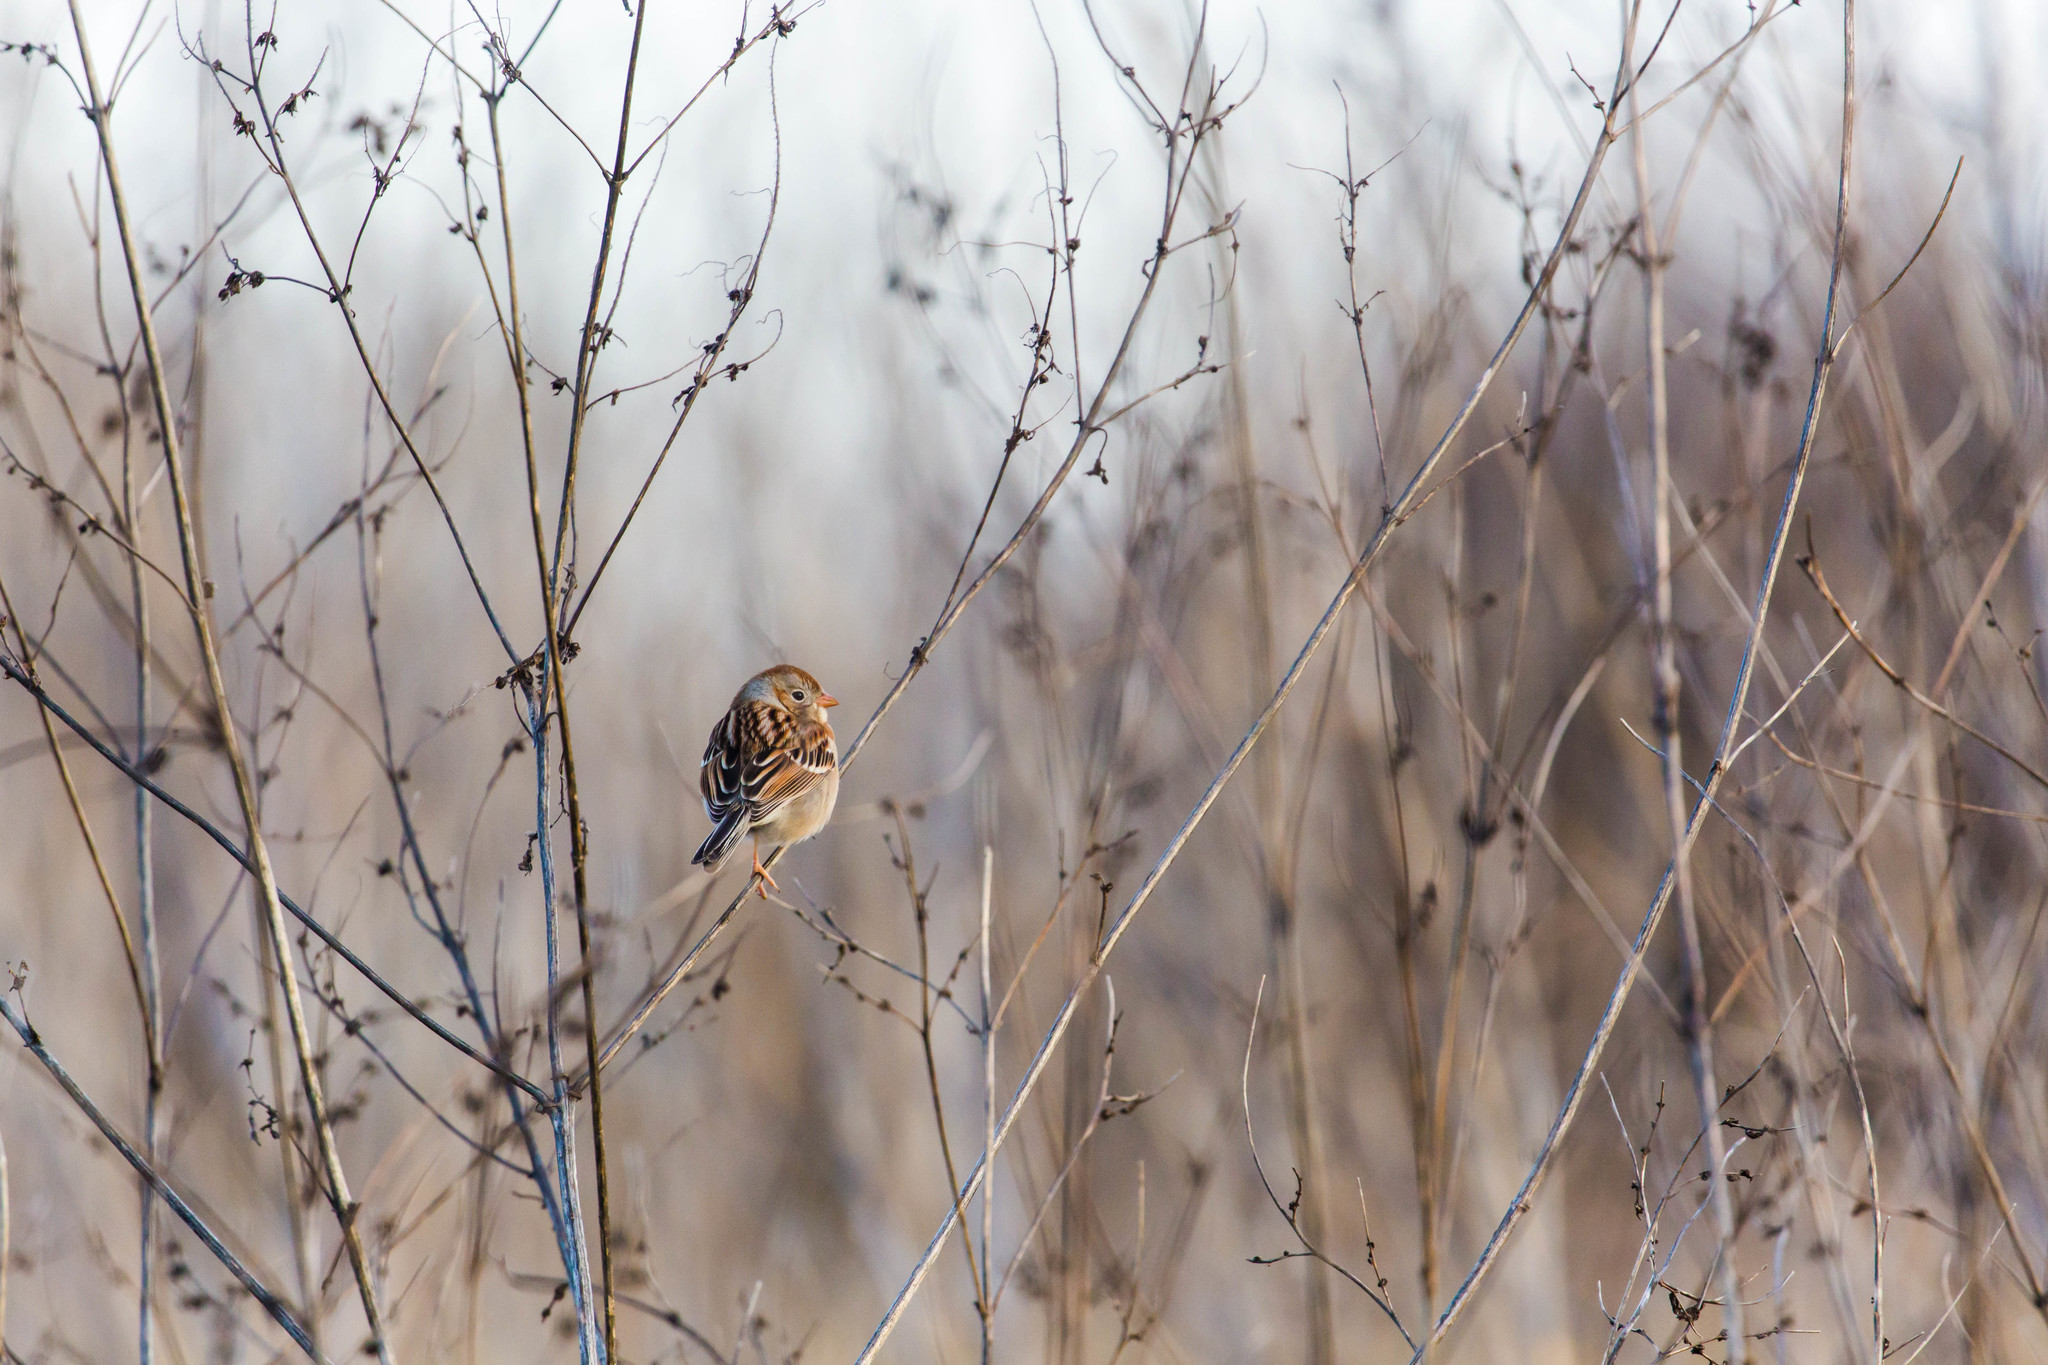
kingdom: Animalia
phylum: Chordata
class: Aves
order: Passeriformes
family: Passerellidae
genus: Spizella
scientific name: Spizella pusilla
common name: Field sparrow
